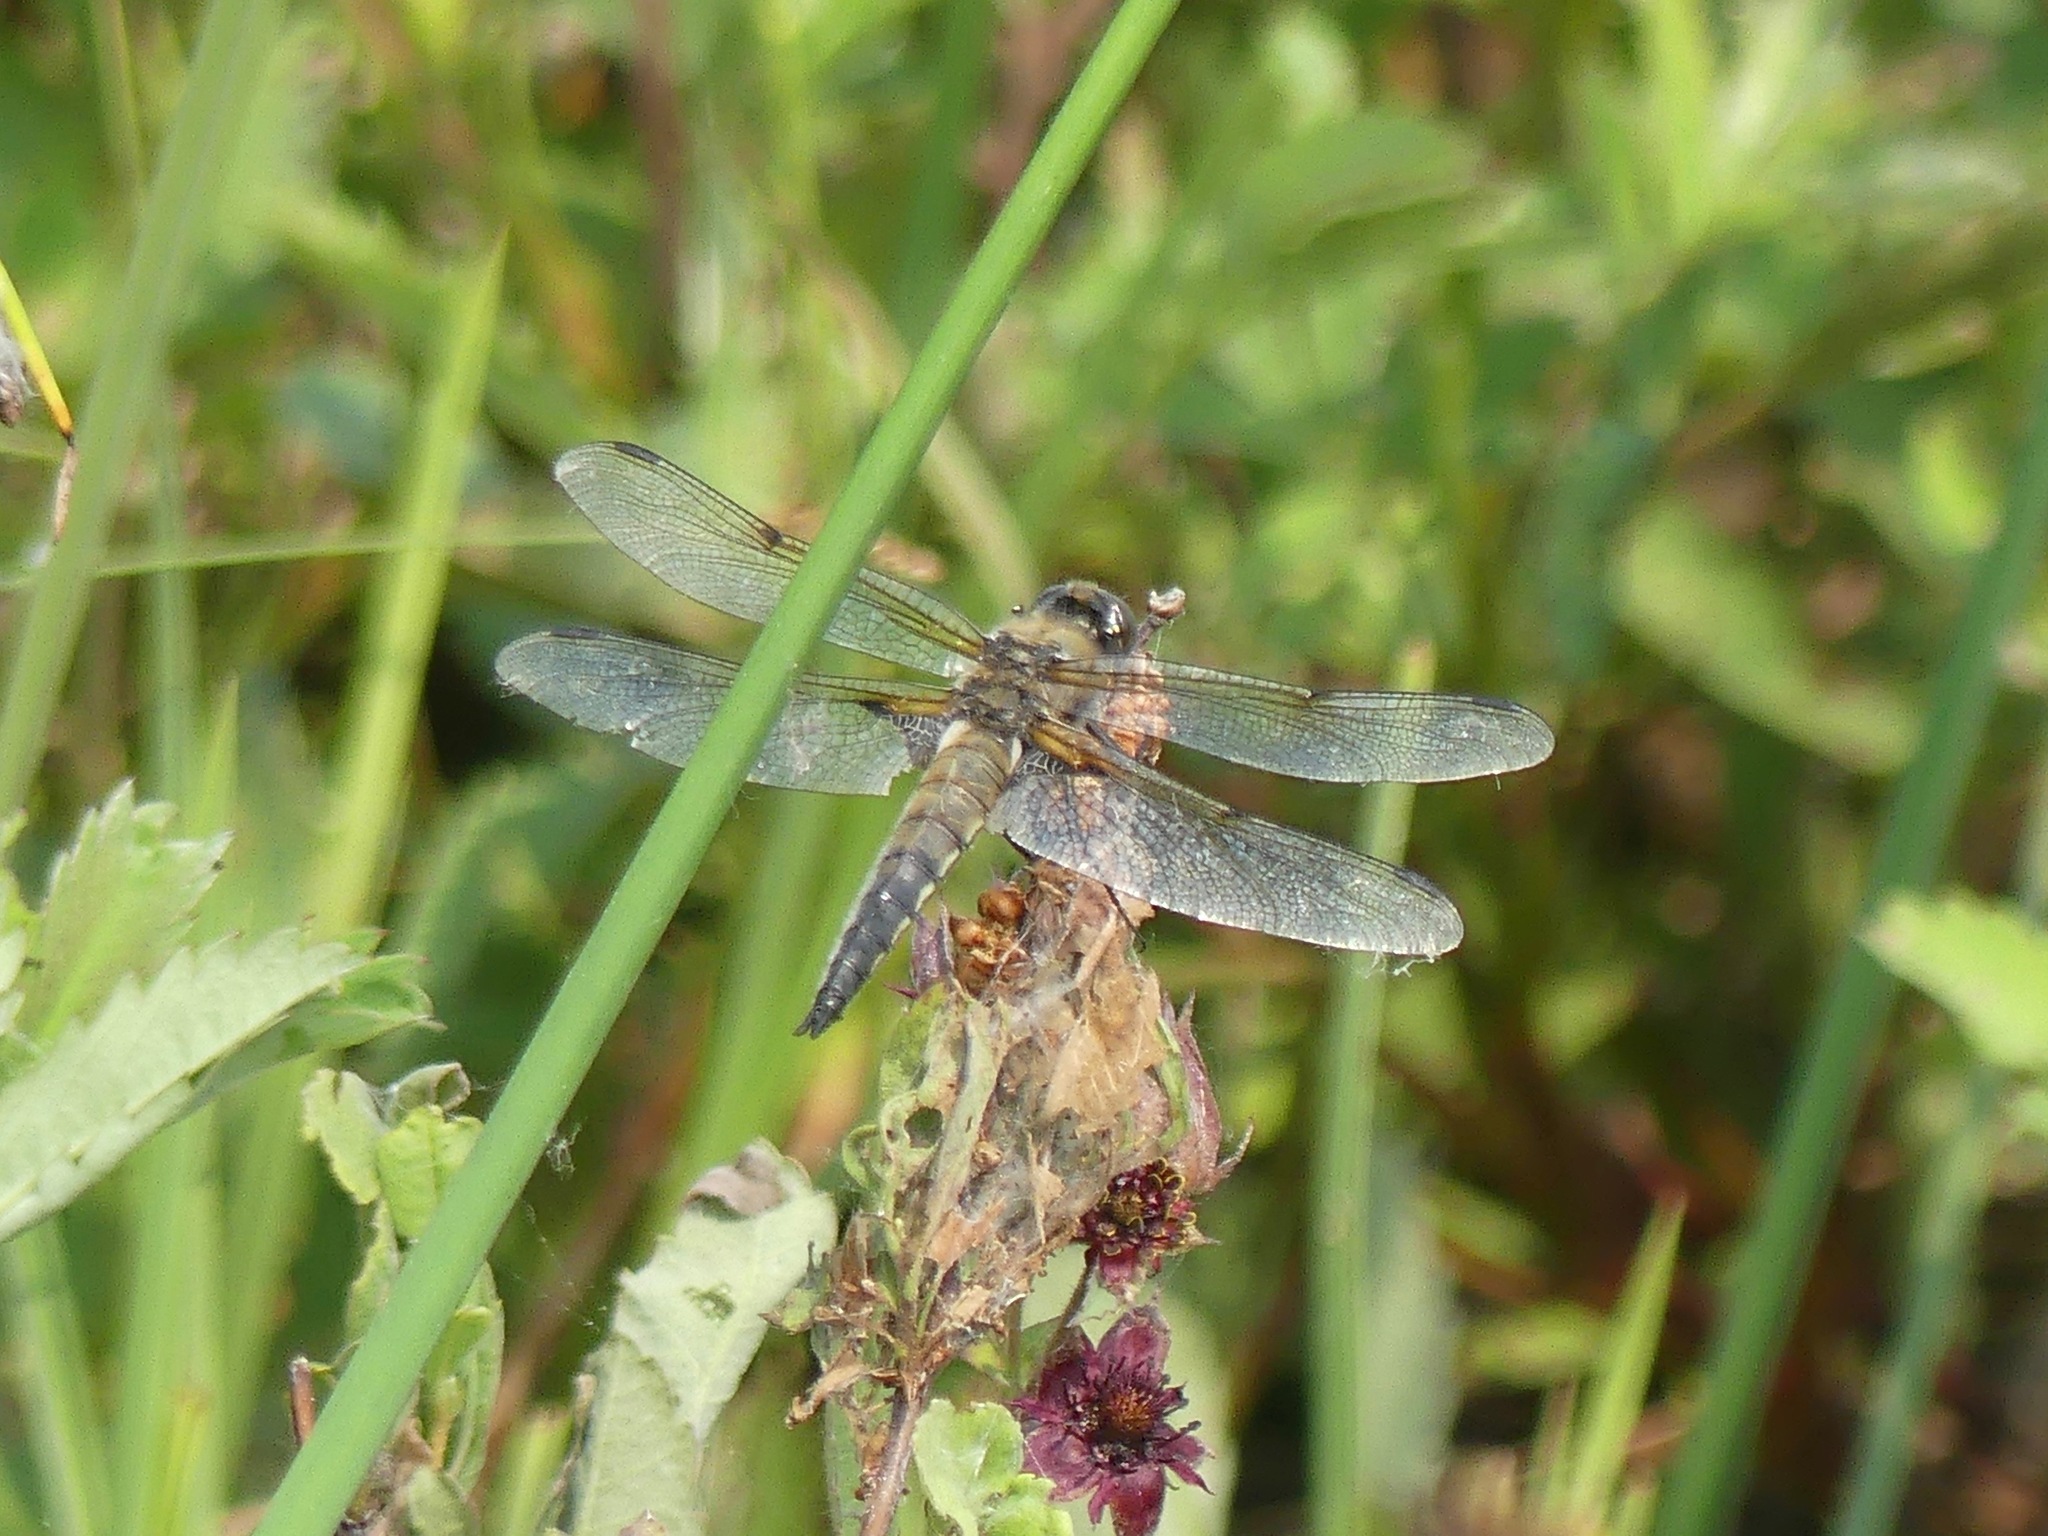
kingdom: Animalia
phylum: Arthropoda
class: Insecta
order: Odonata
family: Libellulidae
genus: Libellula
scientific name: Libellula quadrimaculata
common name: Four-spotted chaser
